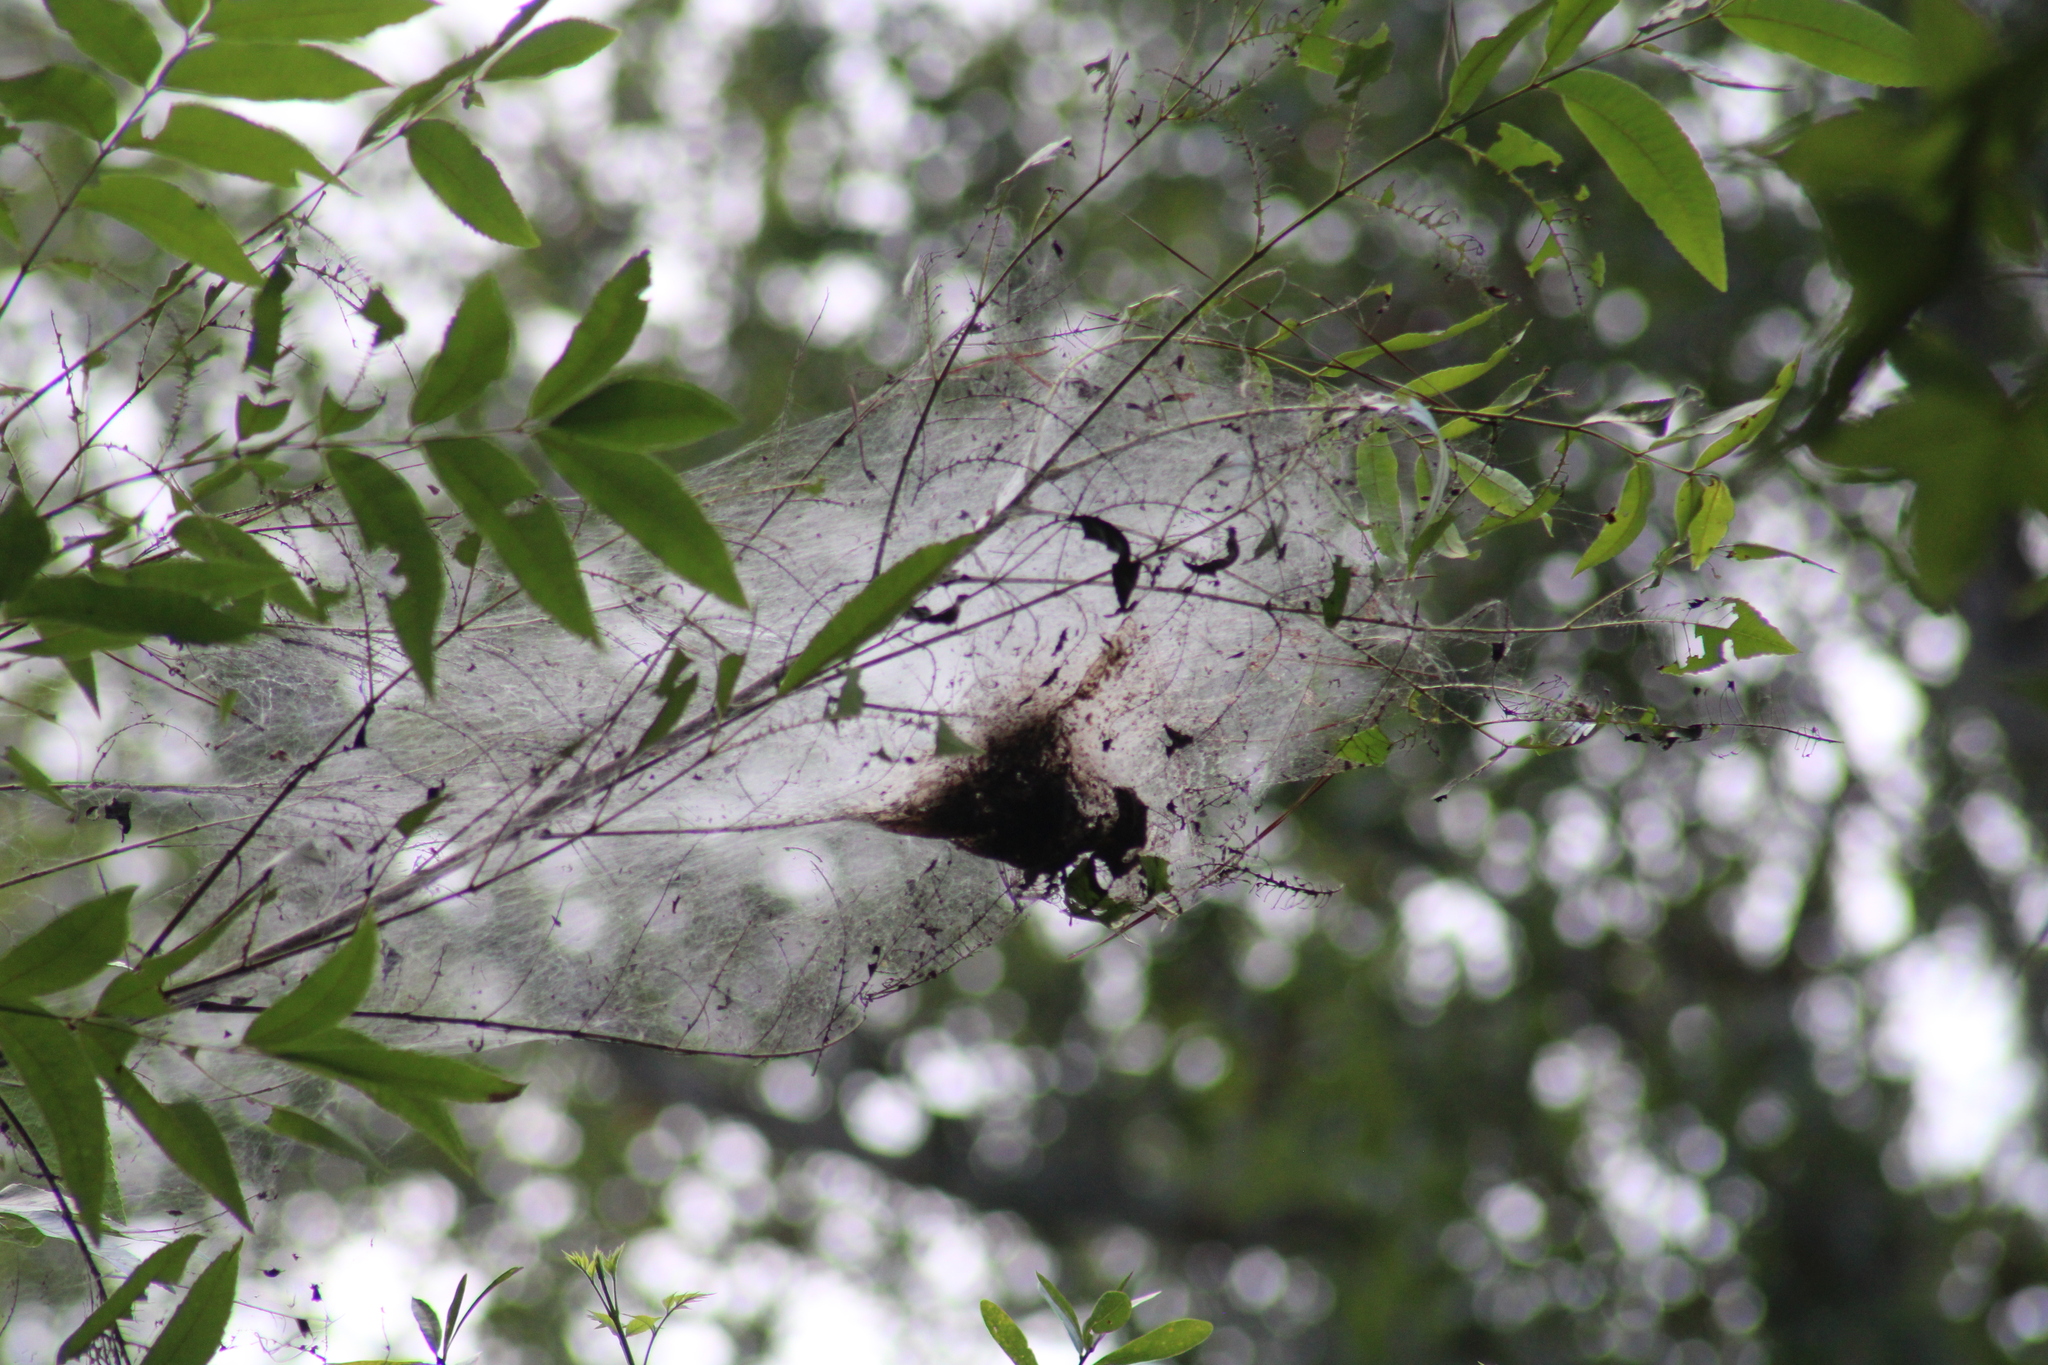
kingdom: Animalia
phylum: Arthropoda
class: Insecta
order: Lepidoptera
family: Erebidae
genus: Hyphantria
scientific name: Hyphantria cunea
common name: American white moth
